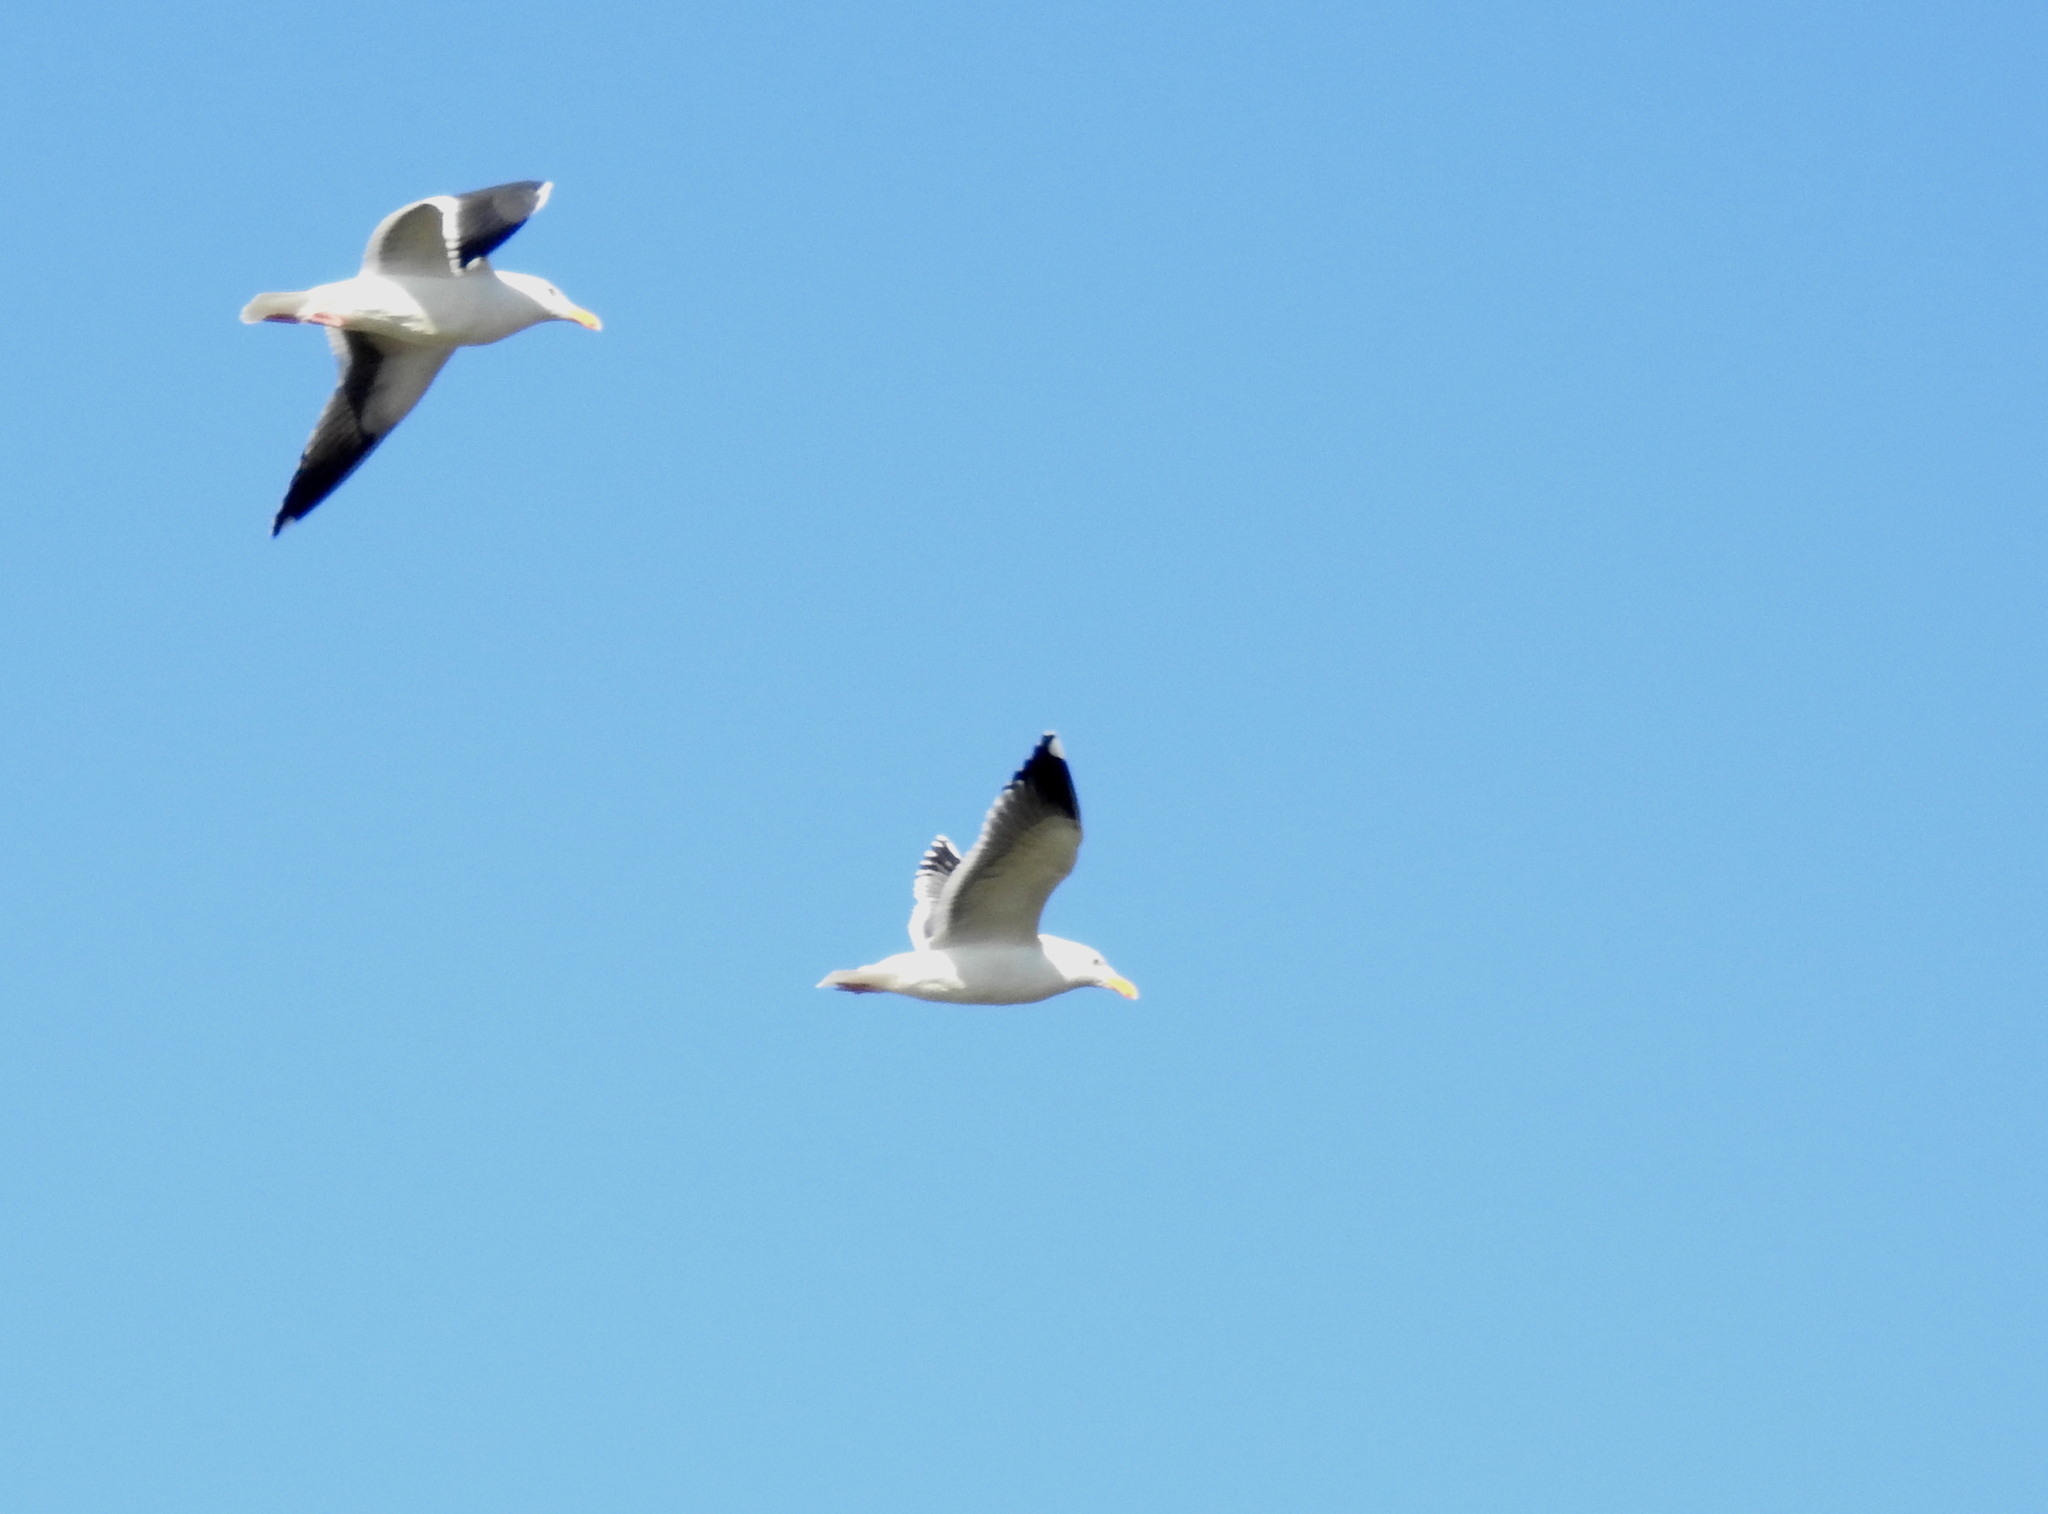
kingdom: Animalia
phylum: Chordata
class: Aves
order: Charadriiformes
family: Laridae
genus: Larus
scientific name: Larus occidentalis
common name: Western gull
